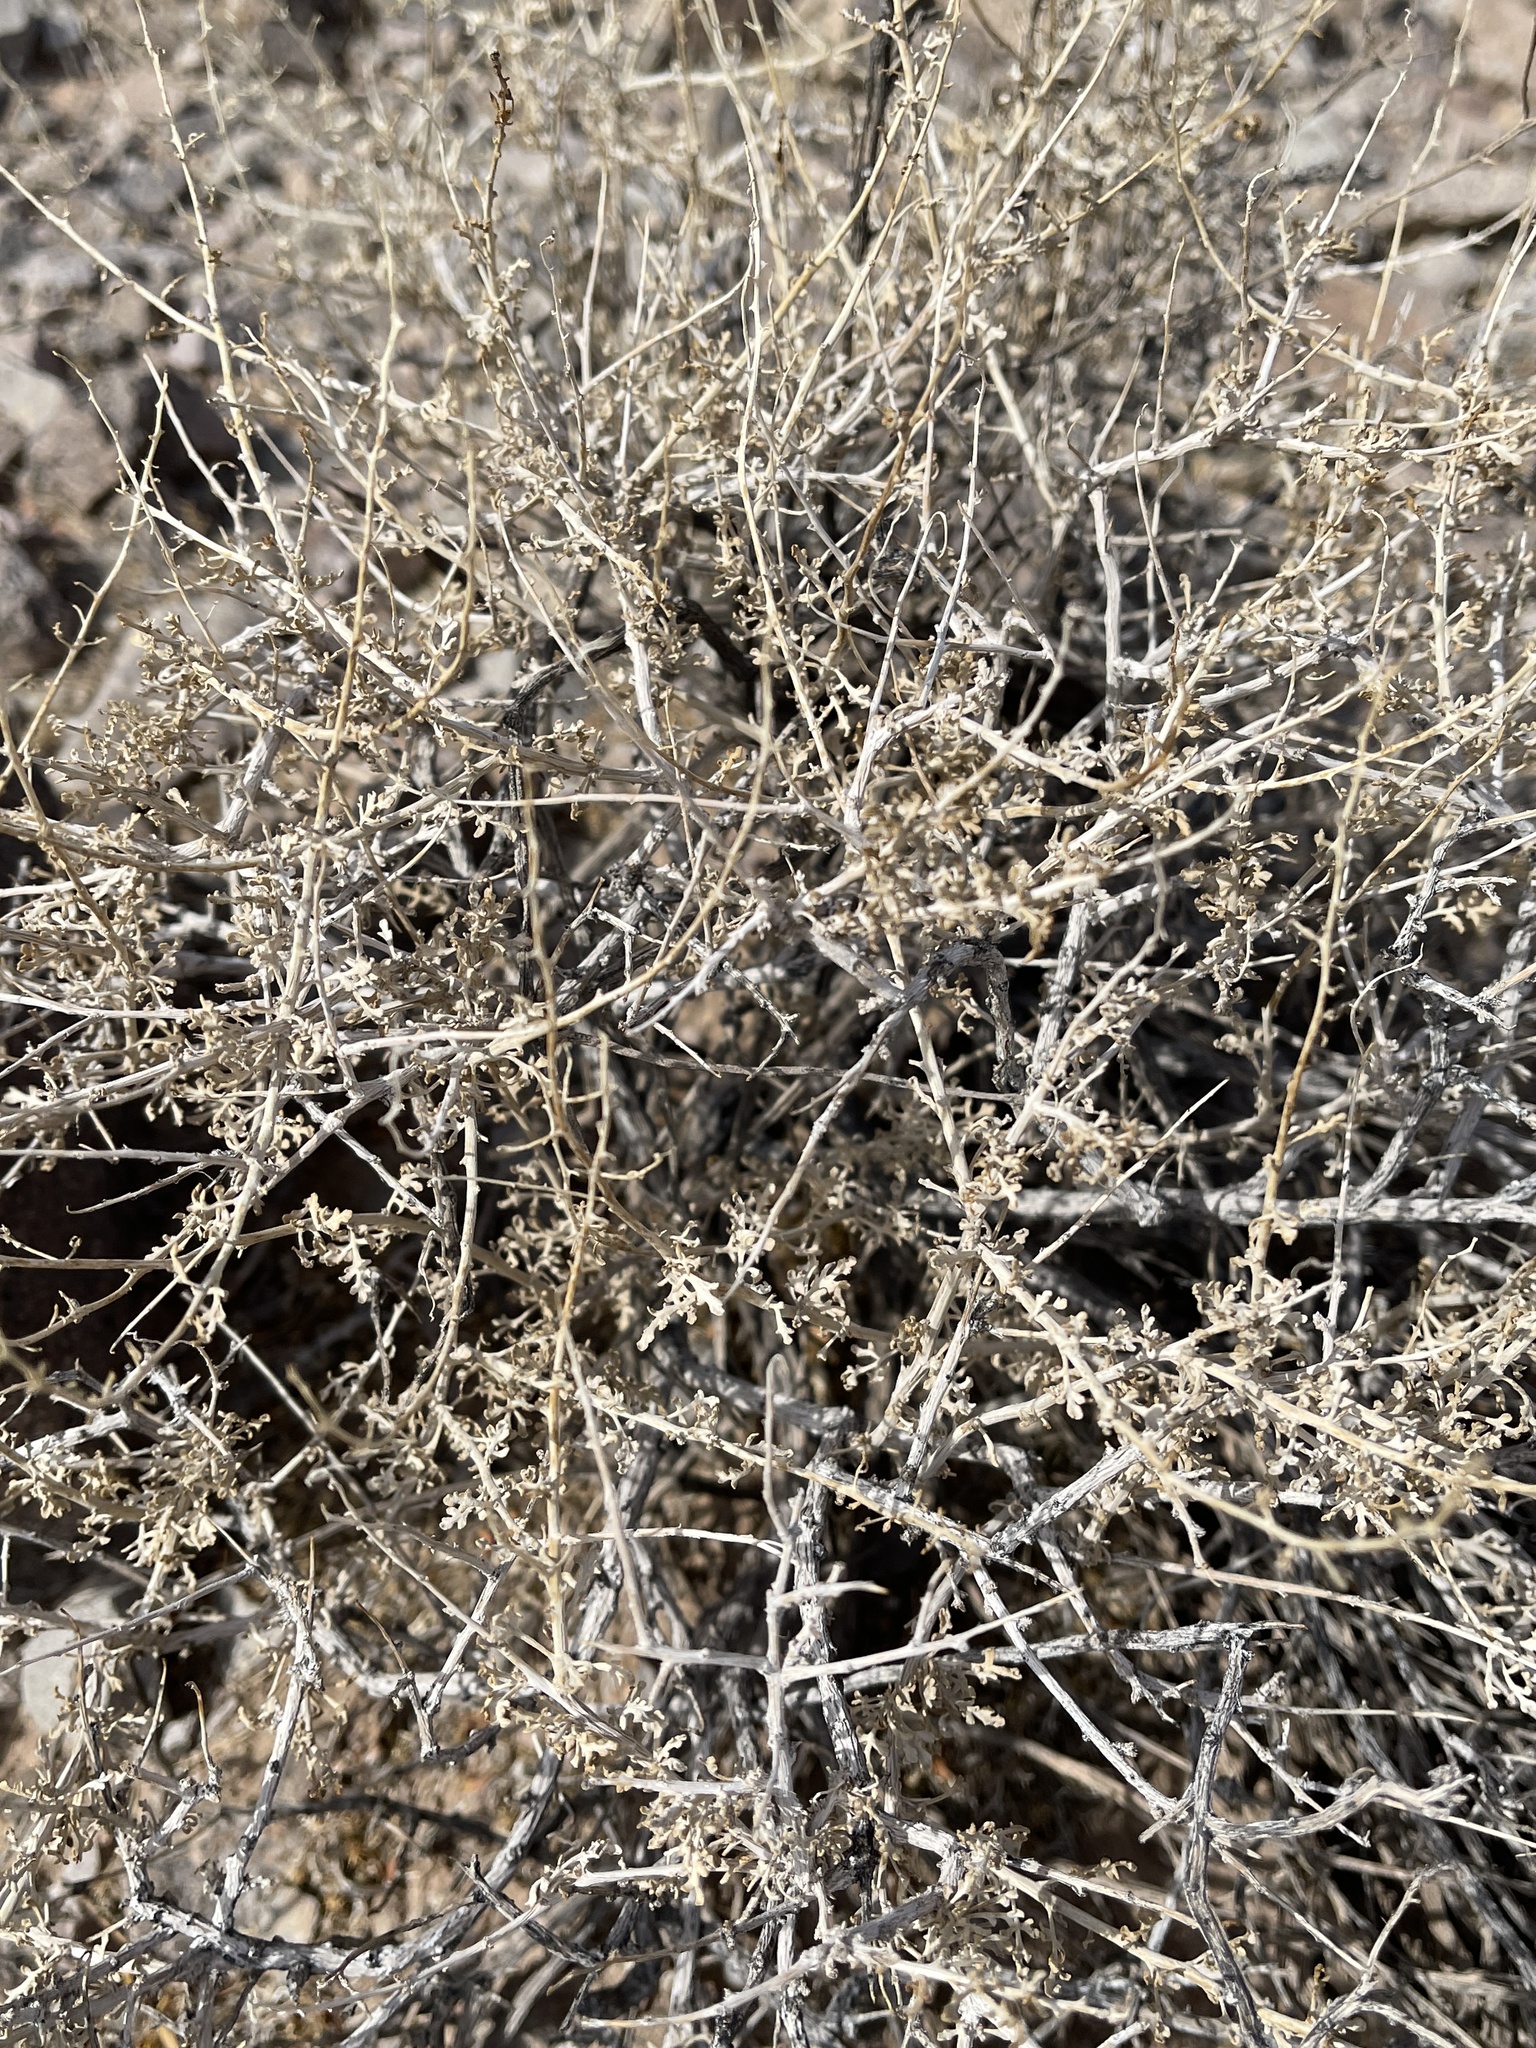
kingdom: Plantae
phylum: Tracheophyta
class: Magnoliopsida
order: Asterales
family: Asteraceae
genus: Ambrosia
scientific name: Ambrosia dumosa
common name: Bur-sage
